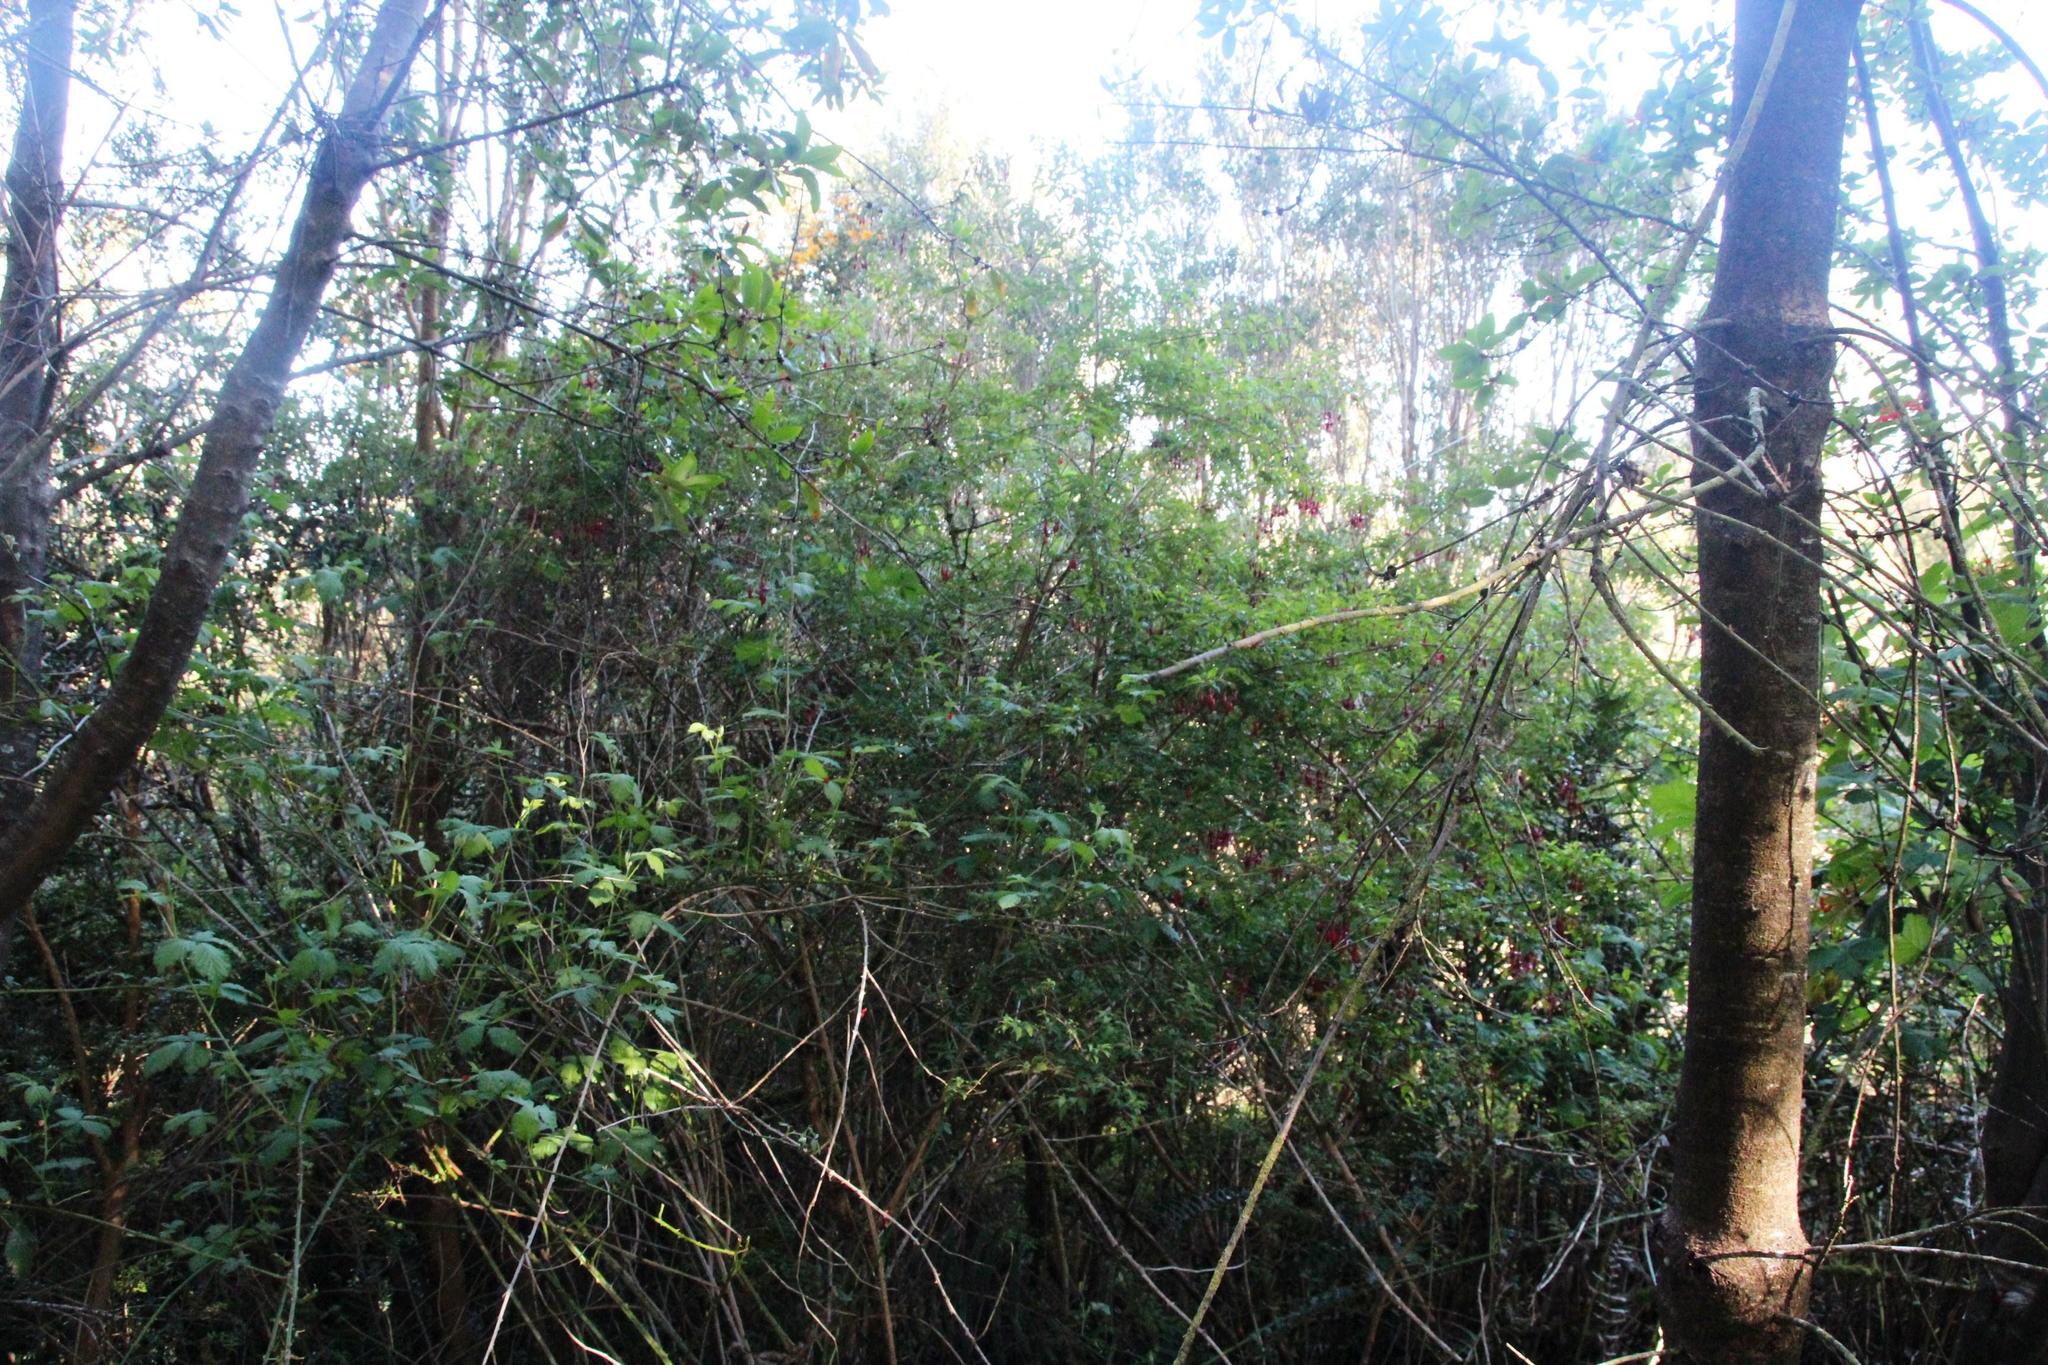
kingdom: Plantae
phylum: Tracheophyta
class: Magnoliopsida
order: Myrtales
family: Onagraceae
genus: Fuchsia
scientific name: Fuchsia magellanica
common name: Hardy fuchsia
